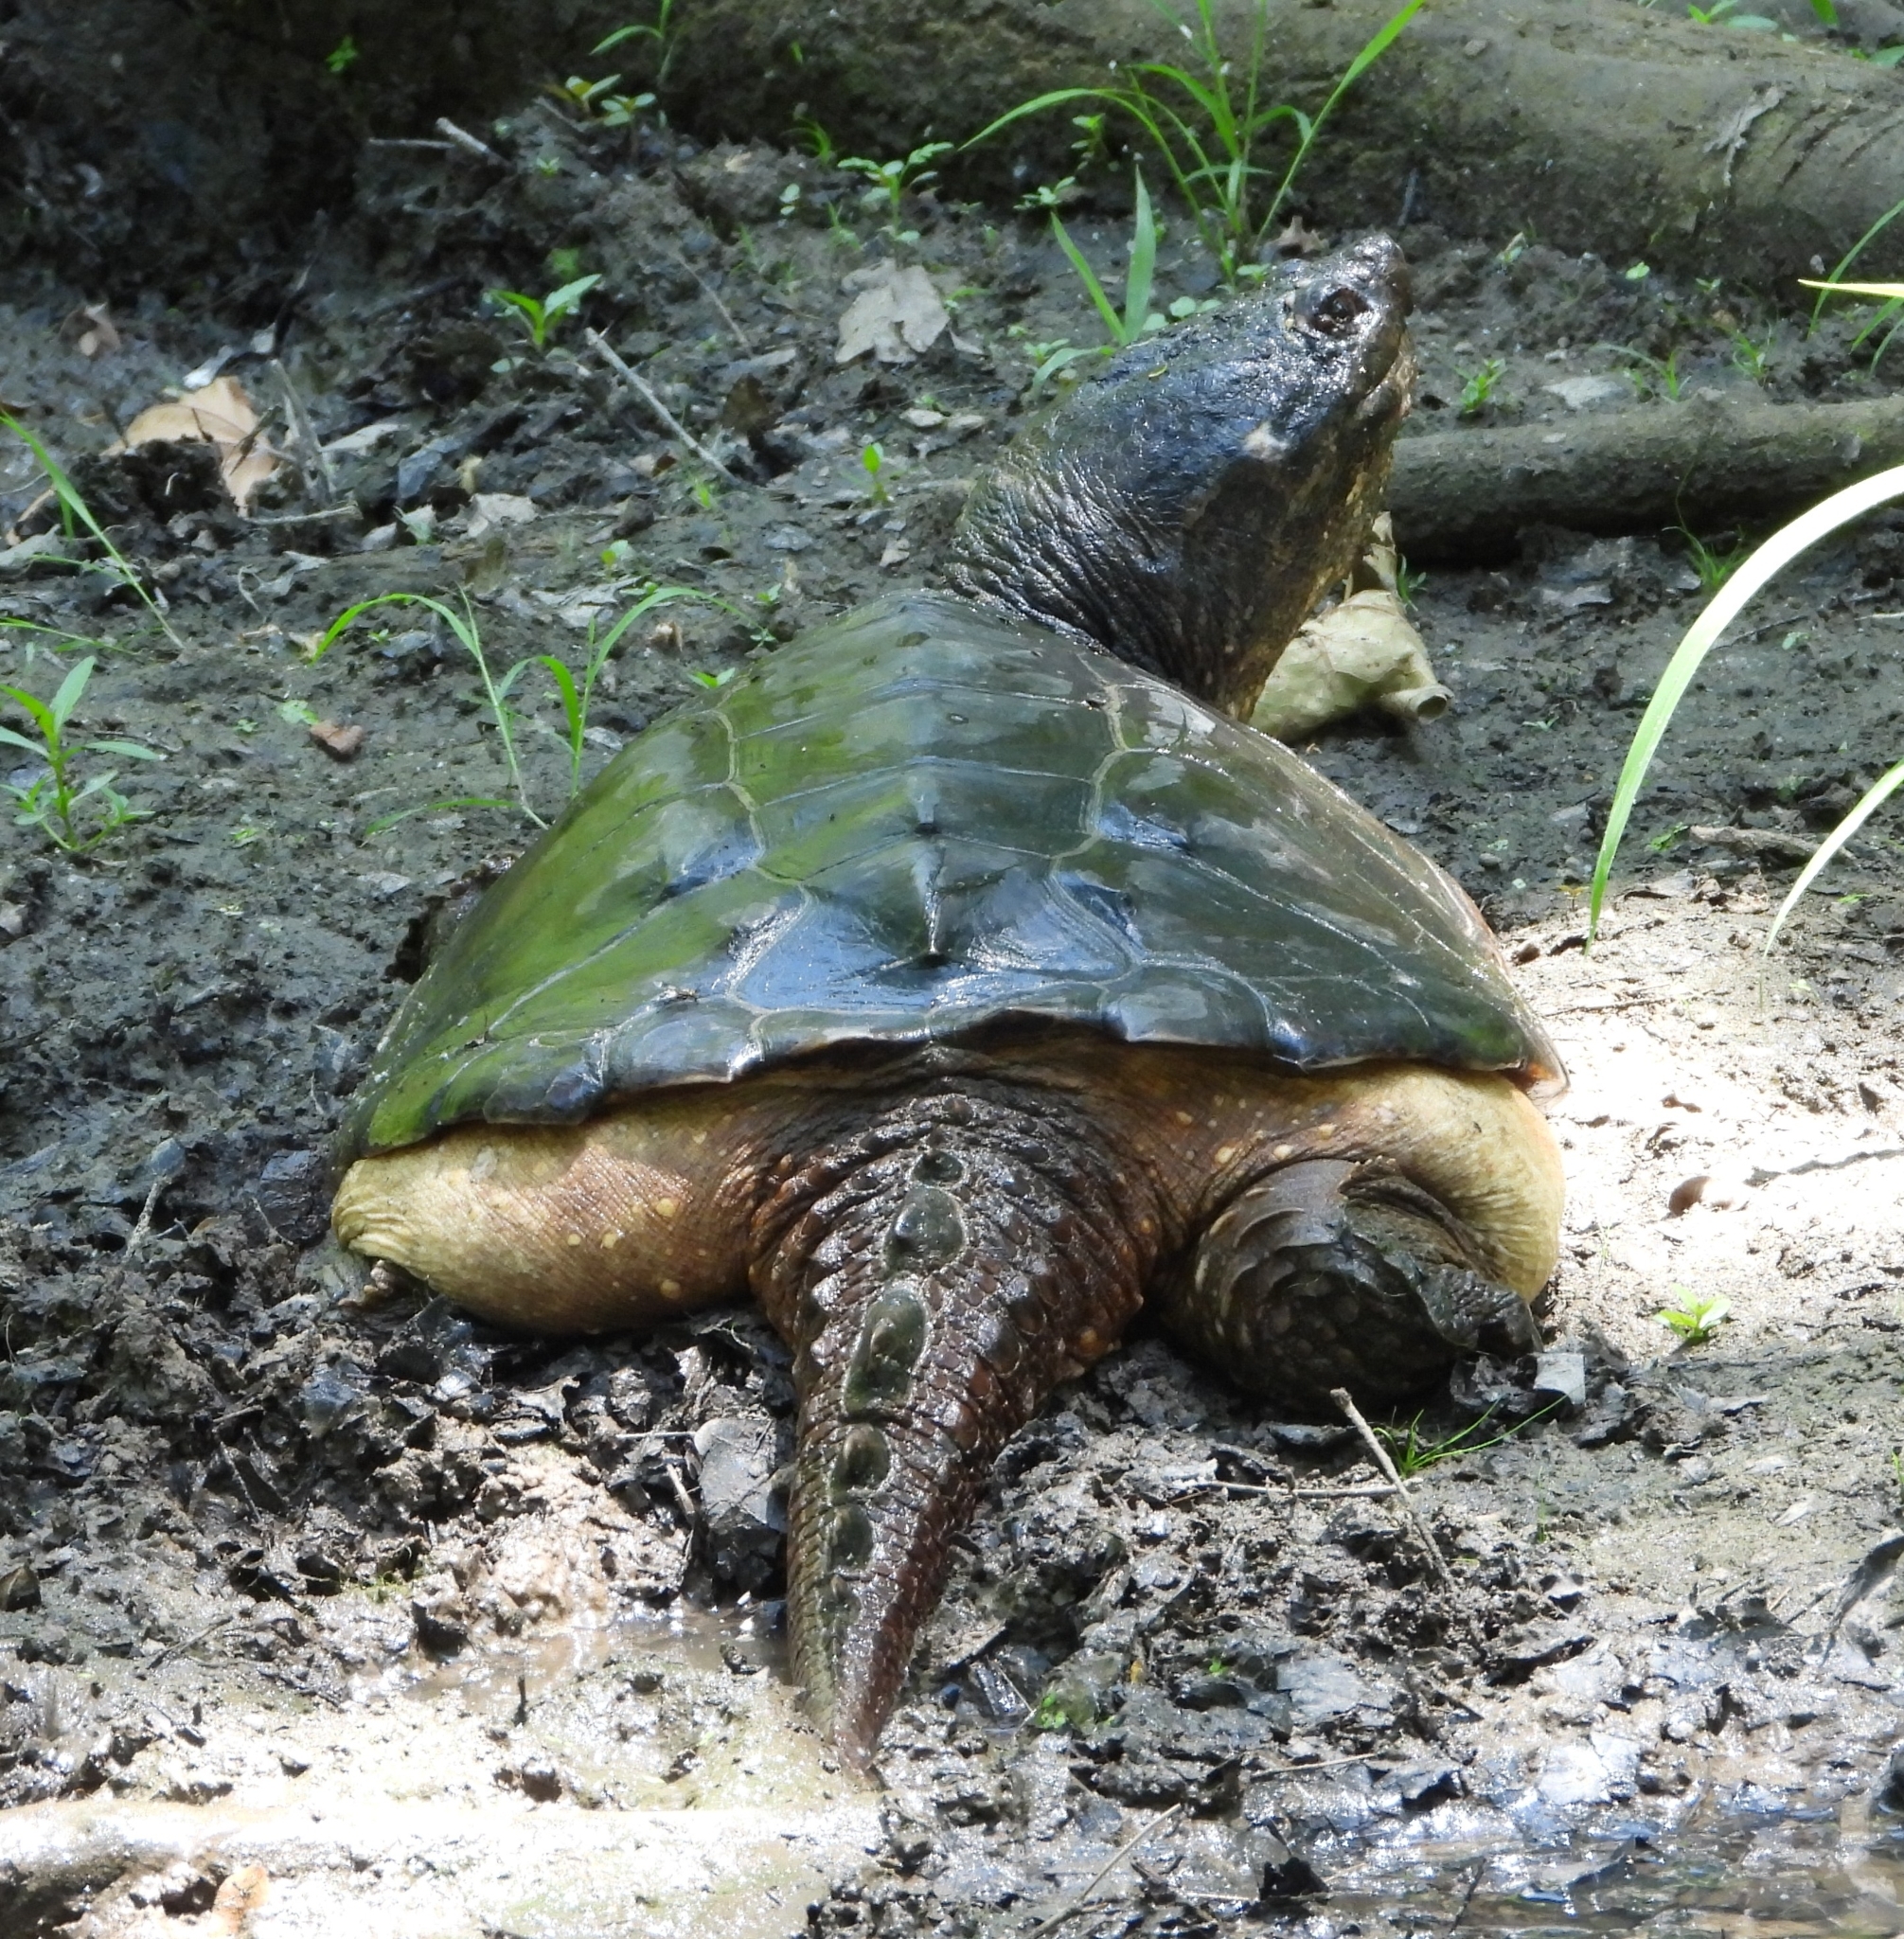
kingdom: Animalia
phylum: Chordata
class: Testudines
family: Chelydridae
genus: Chelydra
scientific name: Chelydra serpentina
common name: Common snapping turtle
